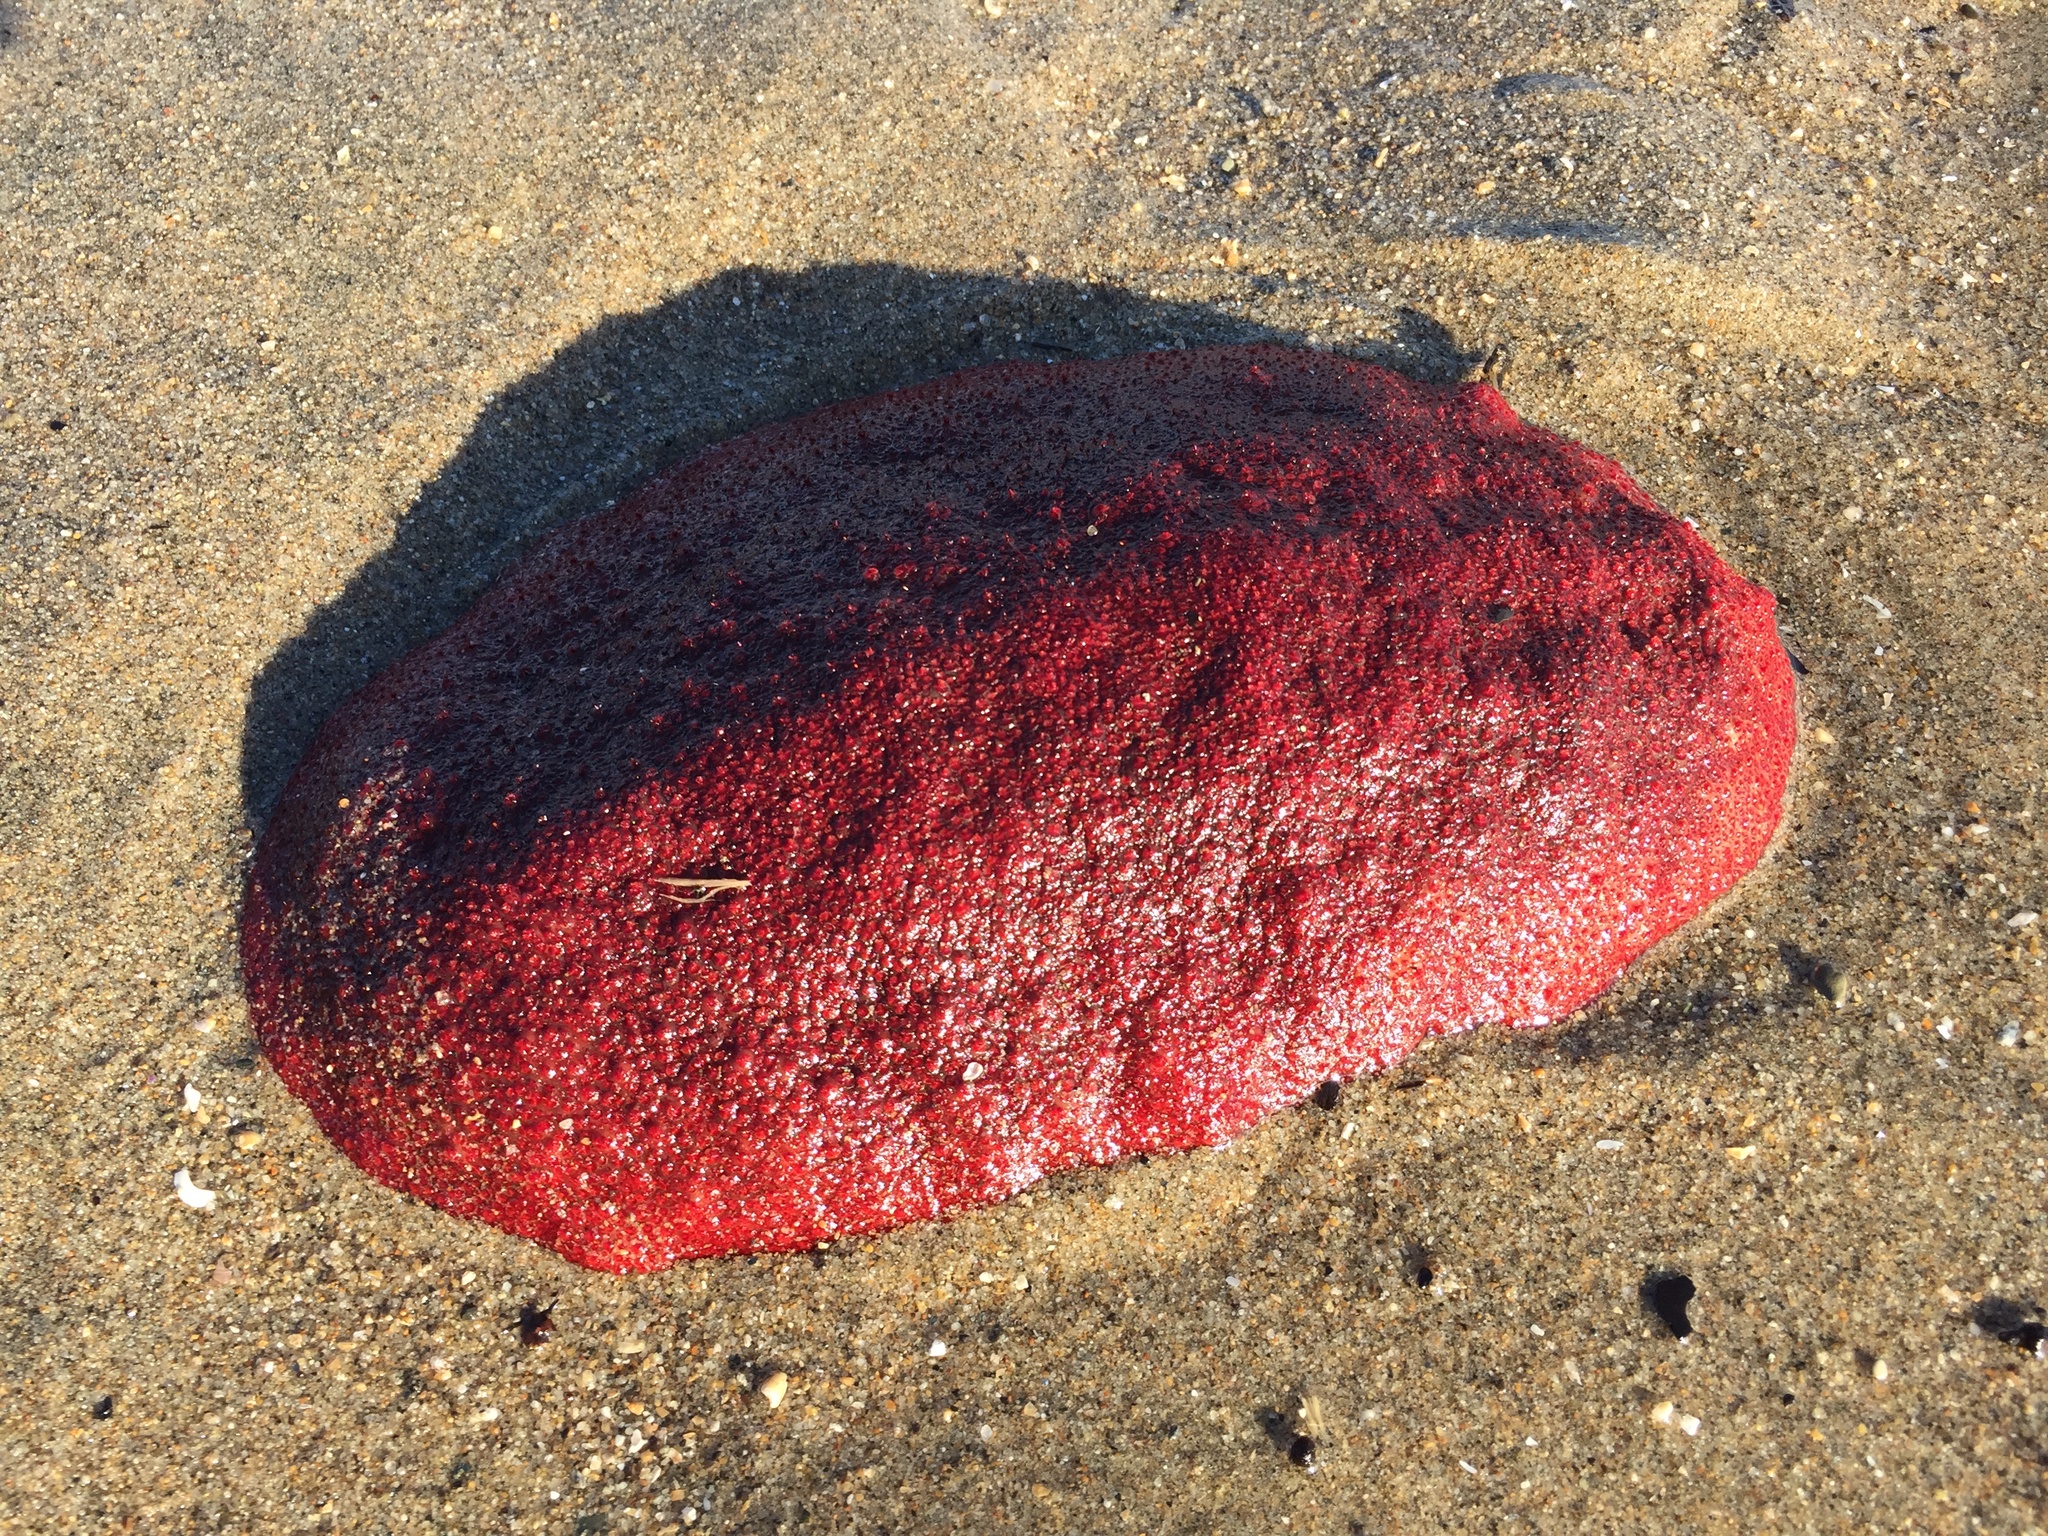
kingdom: Animalia
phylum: Mollusca
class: Polyplacophora
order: Chitonida
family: Acanthochitonidae
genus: Cryptochiton
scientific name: Cryptochiton stelleri
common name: Giant pacific chiton
